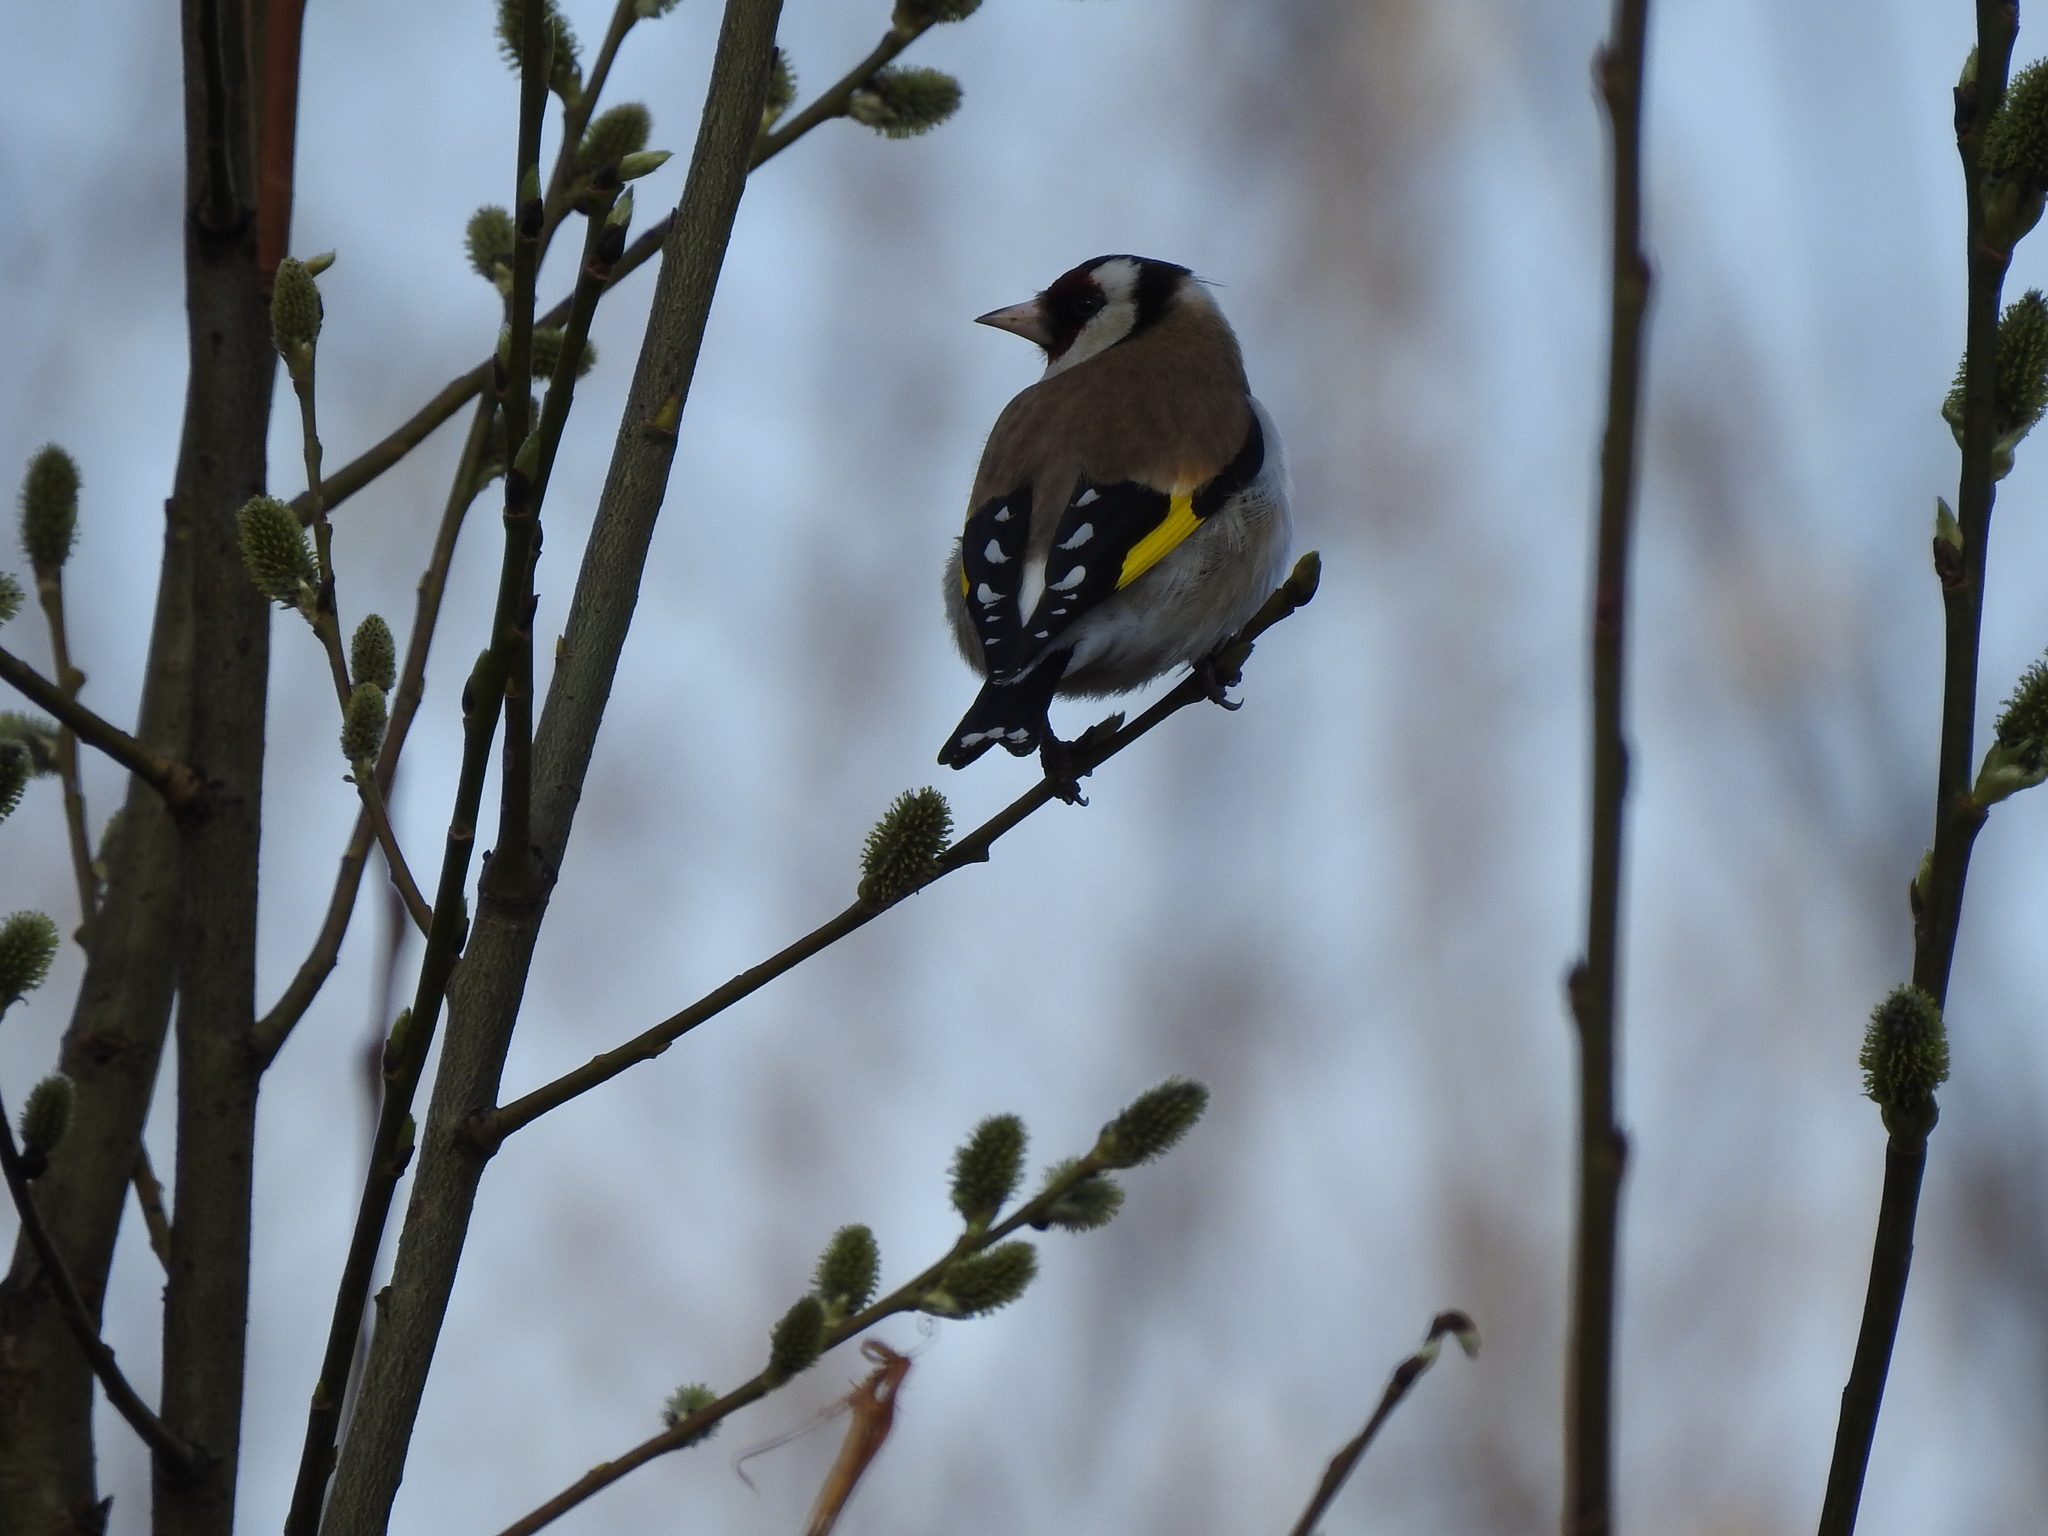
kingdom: Animalia
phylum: Chordata
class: Aves
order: Passeriformes
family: Fringillidae
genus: Carduelis
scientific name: Carduelis carduelis
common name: European goldfinch
